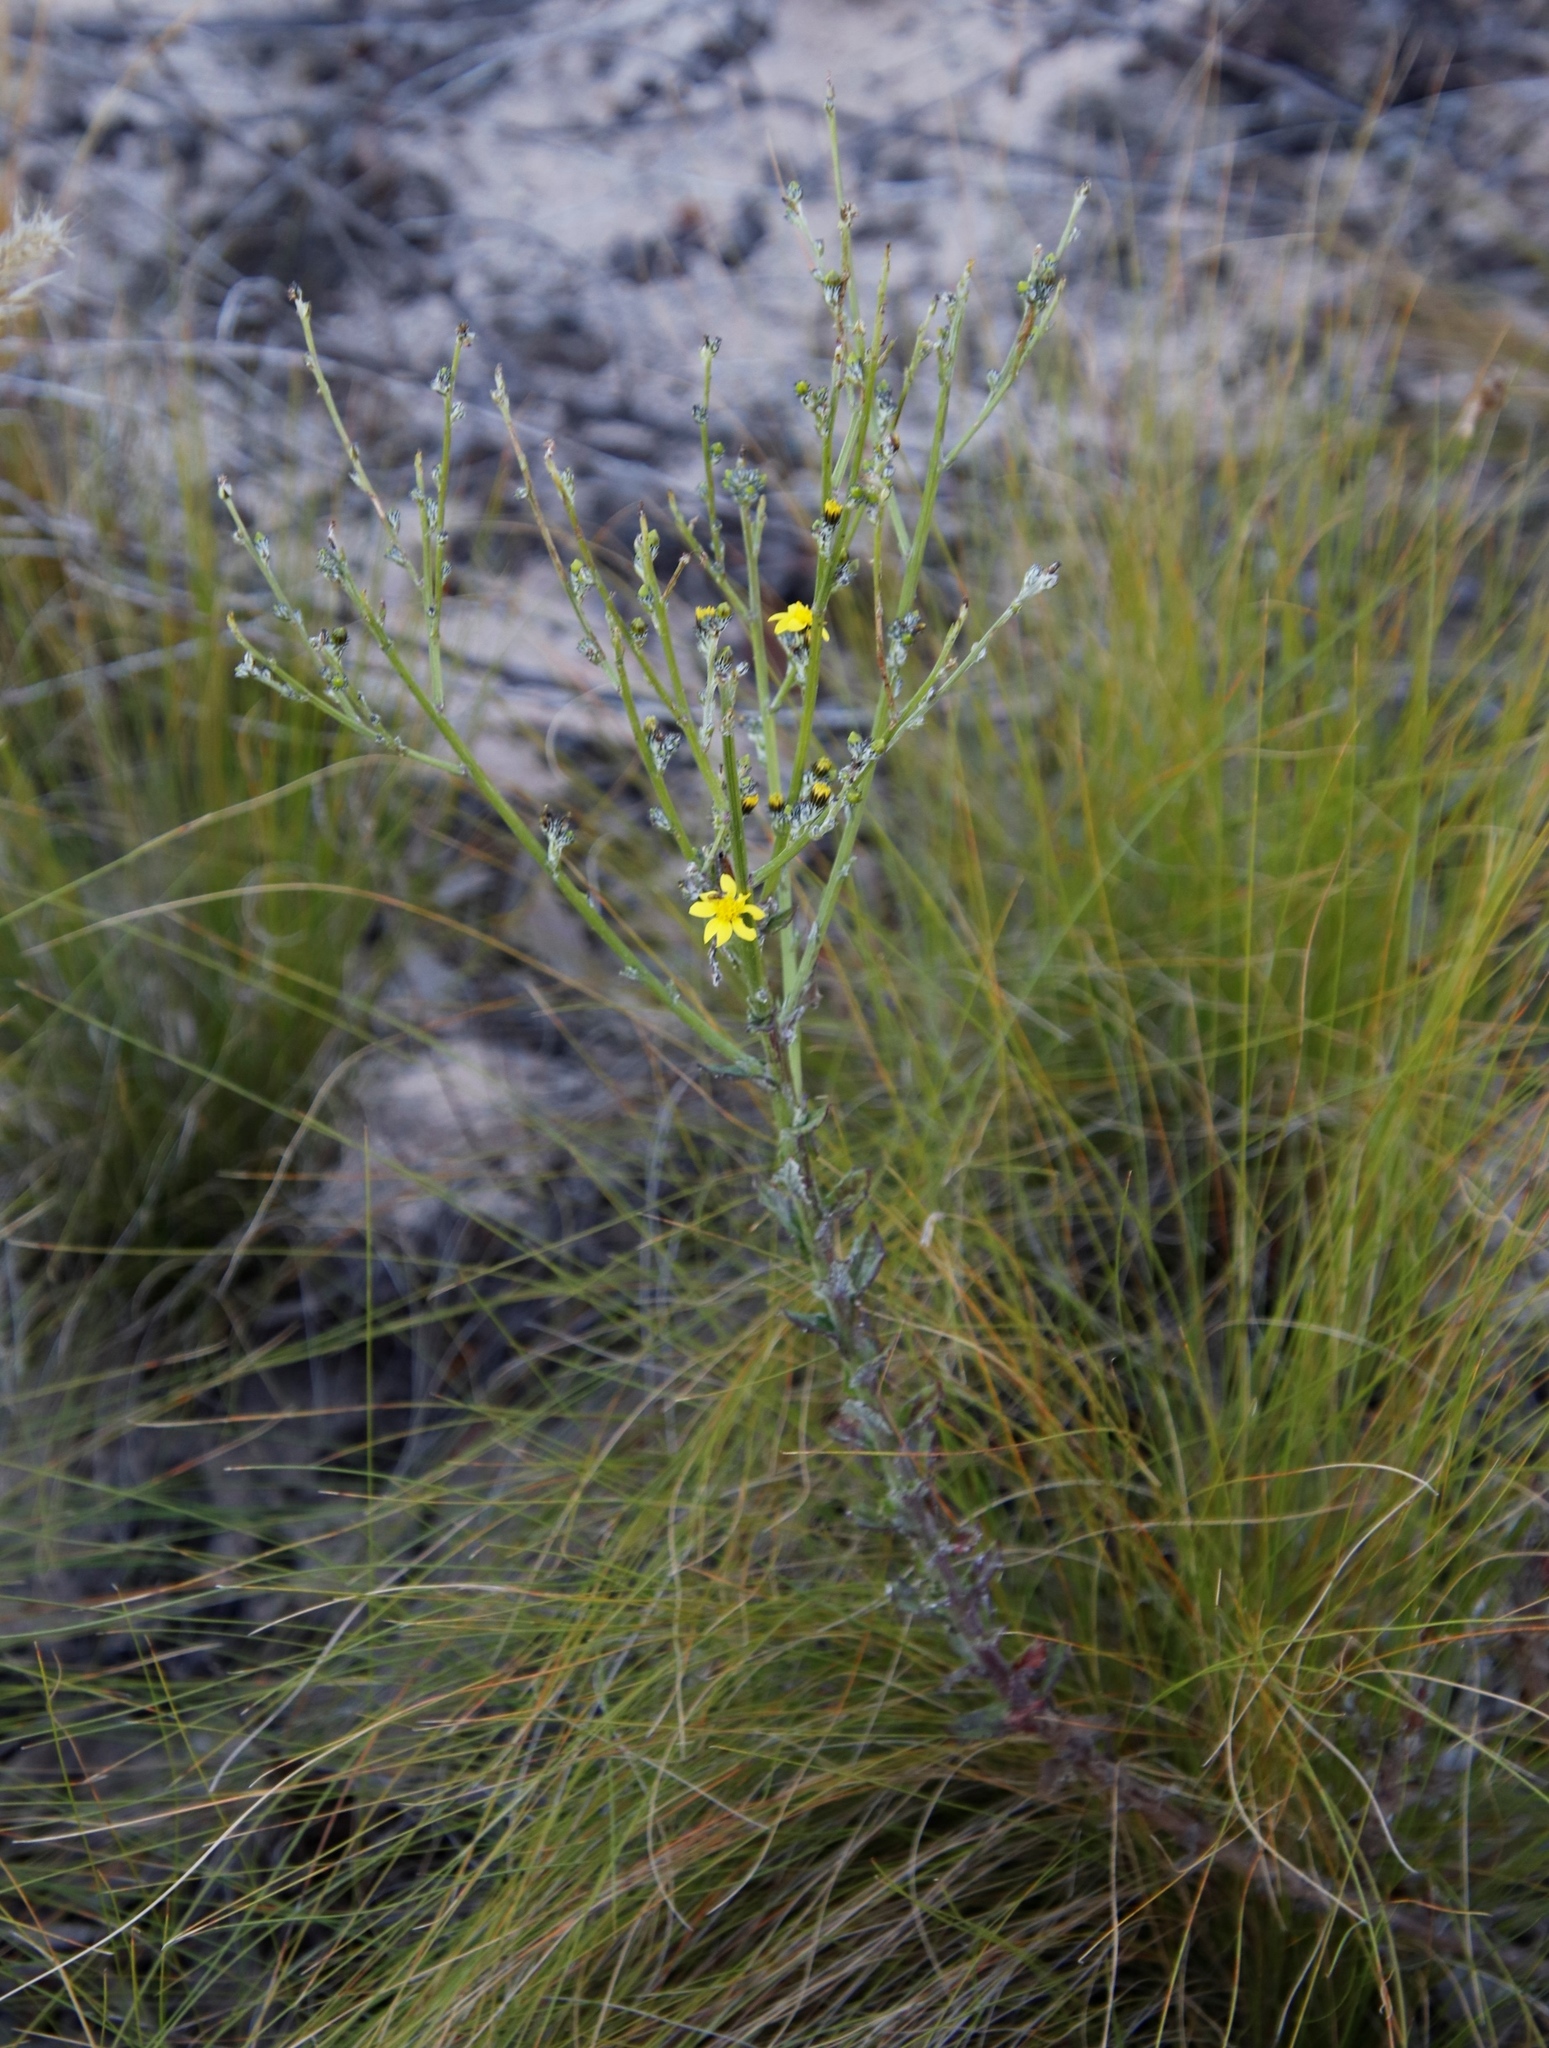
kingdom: Plantae
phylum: Tracheophyta
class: Magnoliopsida
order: Asterales
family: Asteraceae
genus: Senecio
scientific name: Senecio pubigerus
